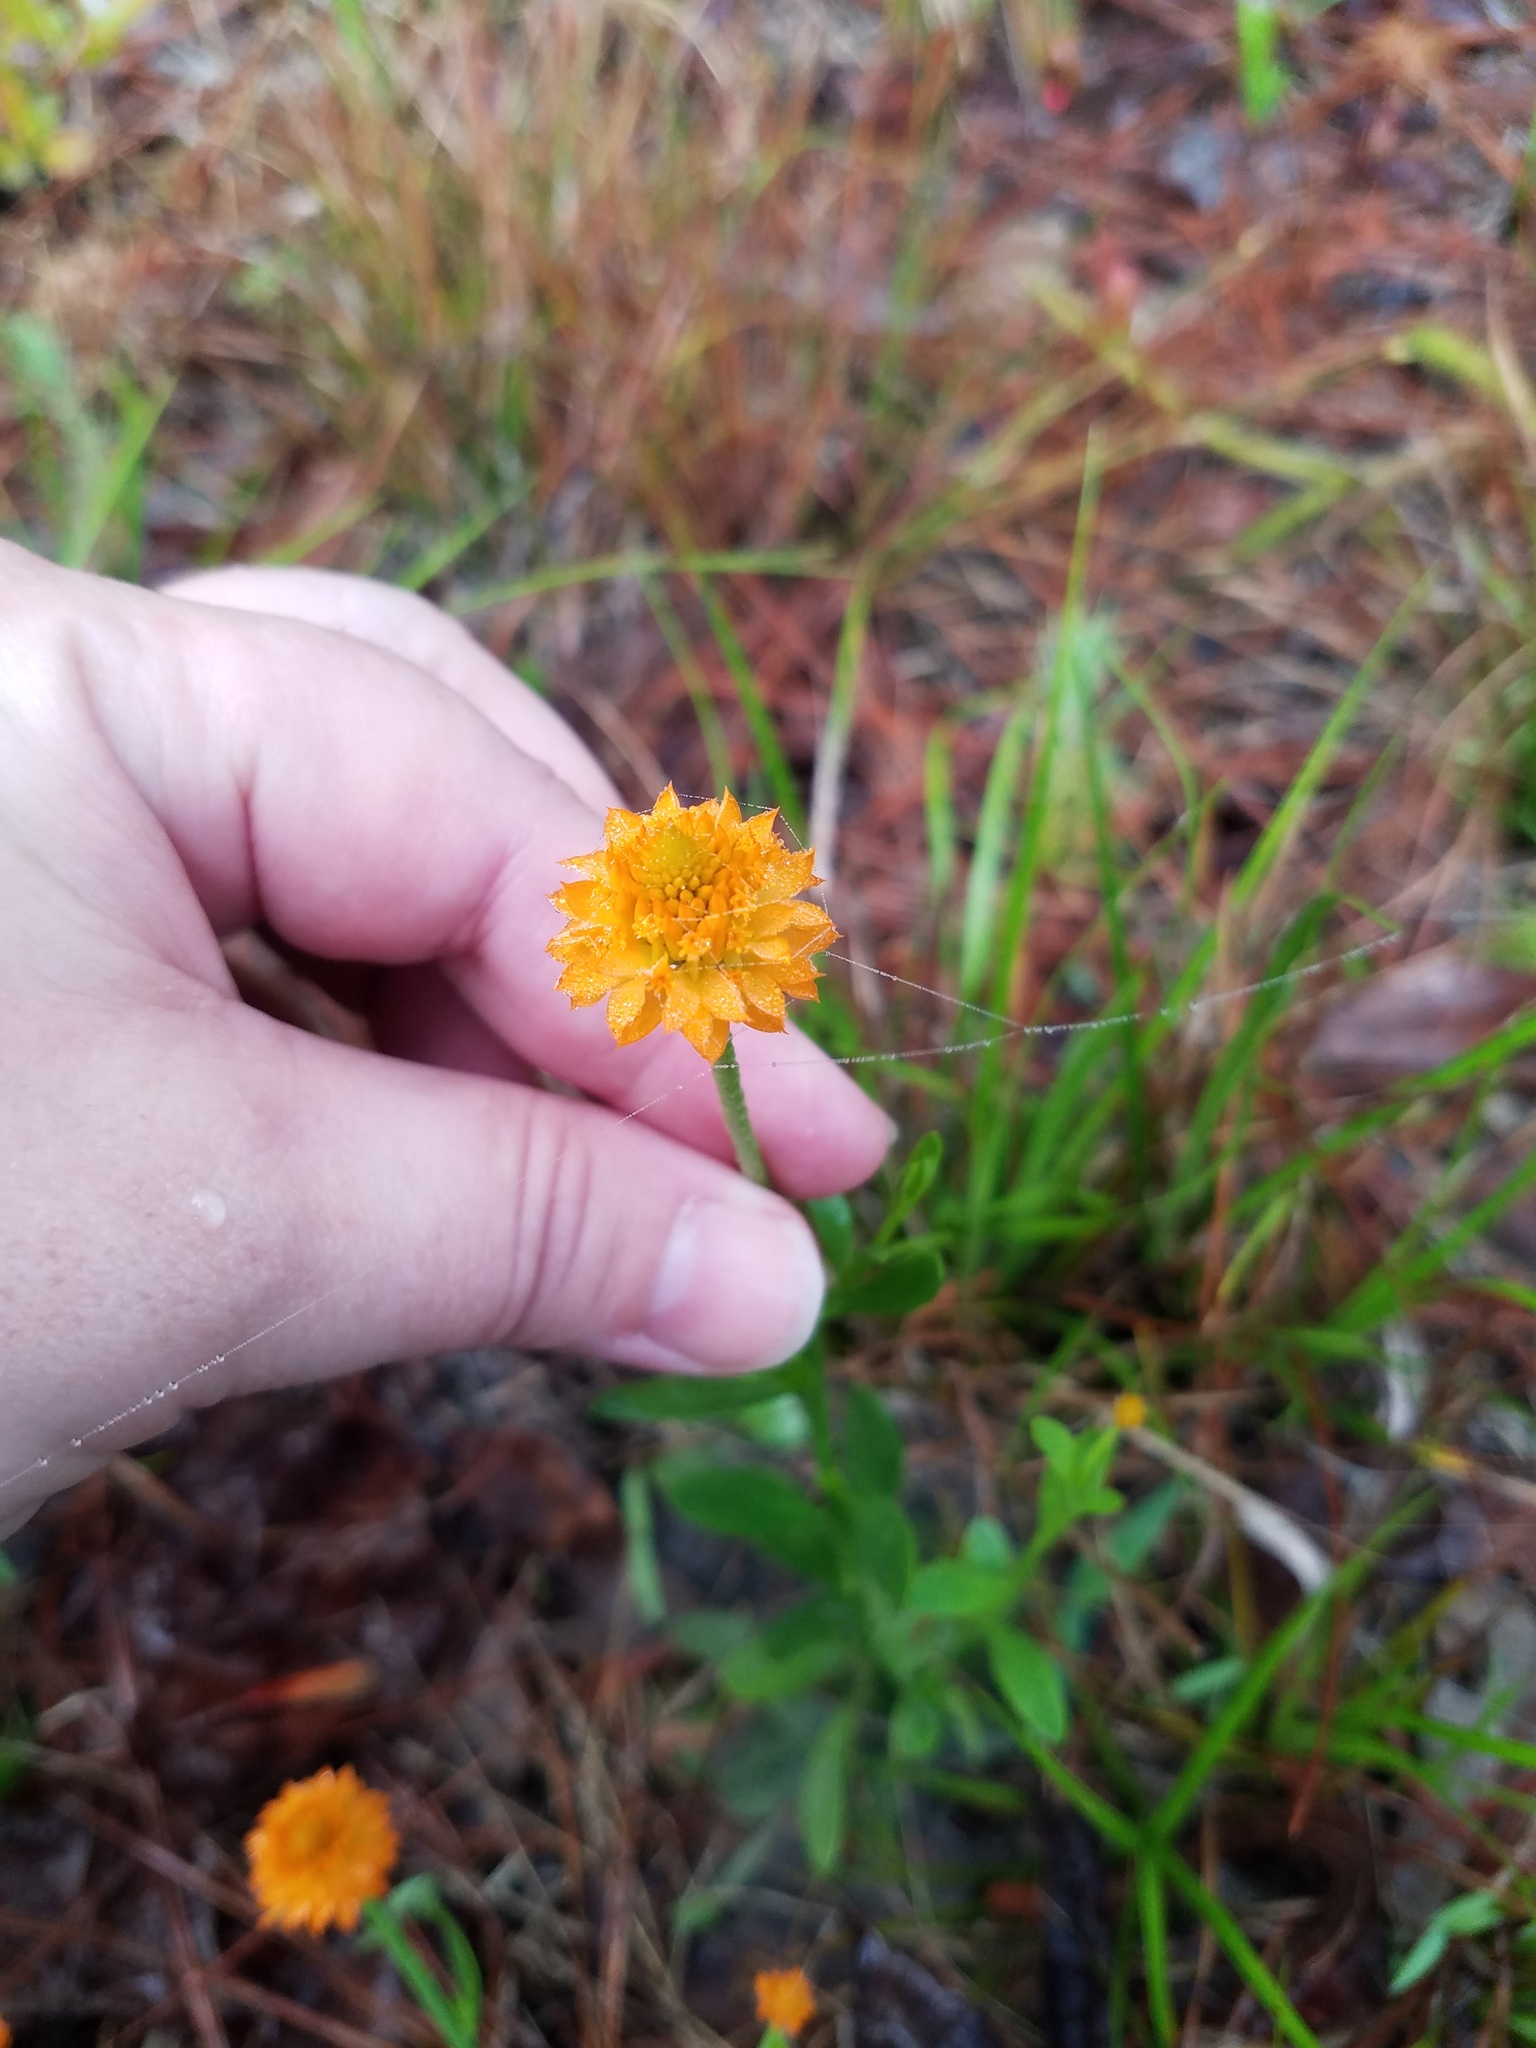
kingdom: Plantae
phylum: Tracheophyta
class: Magnoliopsida
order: Fabales
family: Polygalaceae
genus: Polygala
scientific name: Polygala lutea
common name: Orange milkwort
